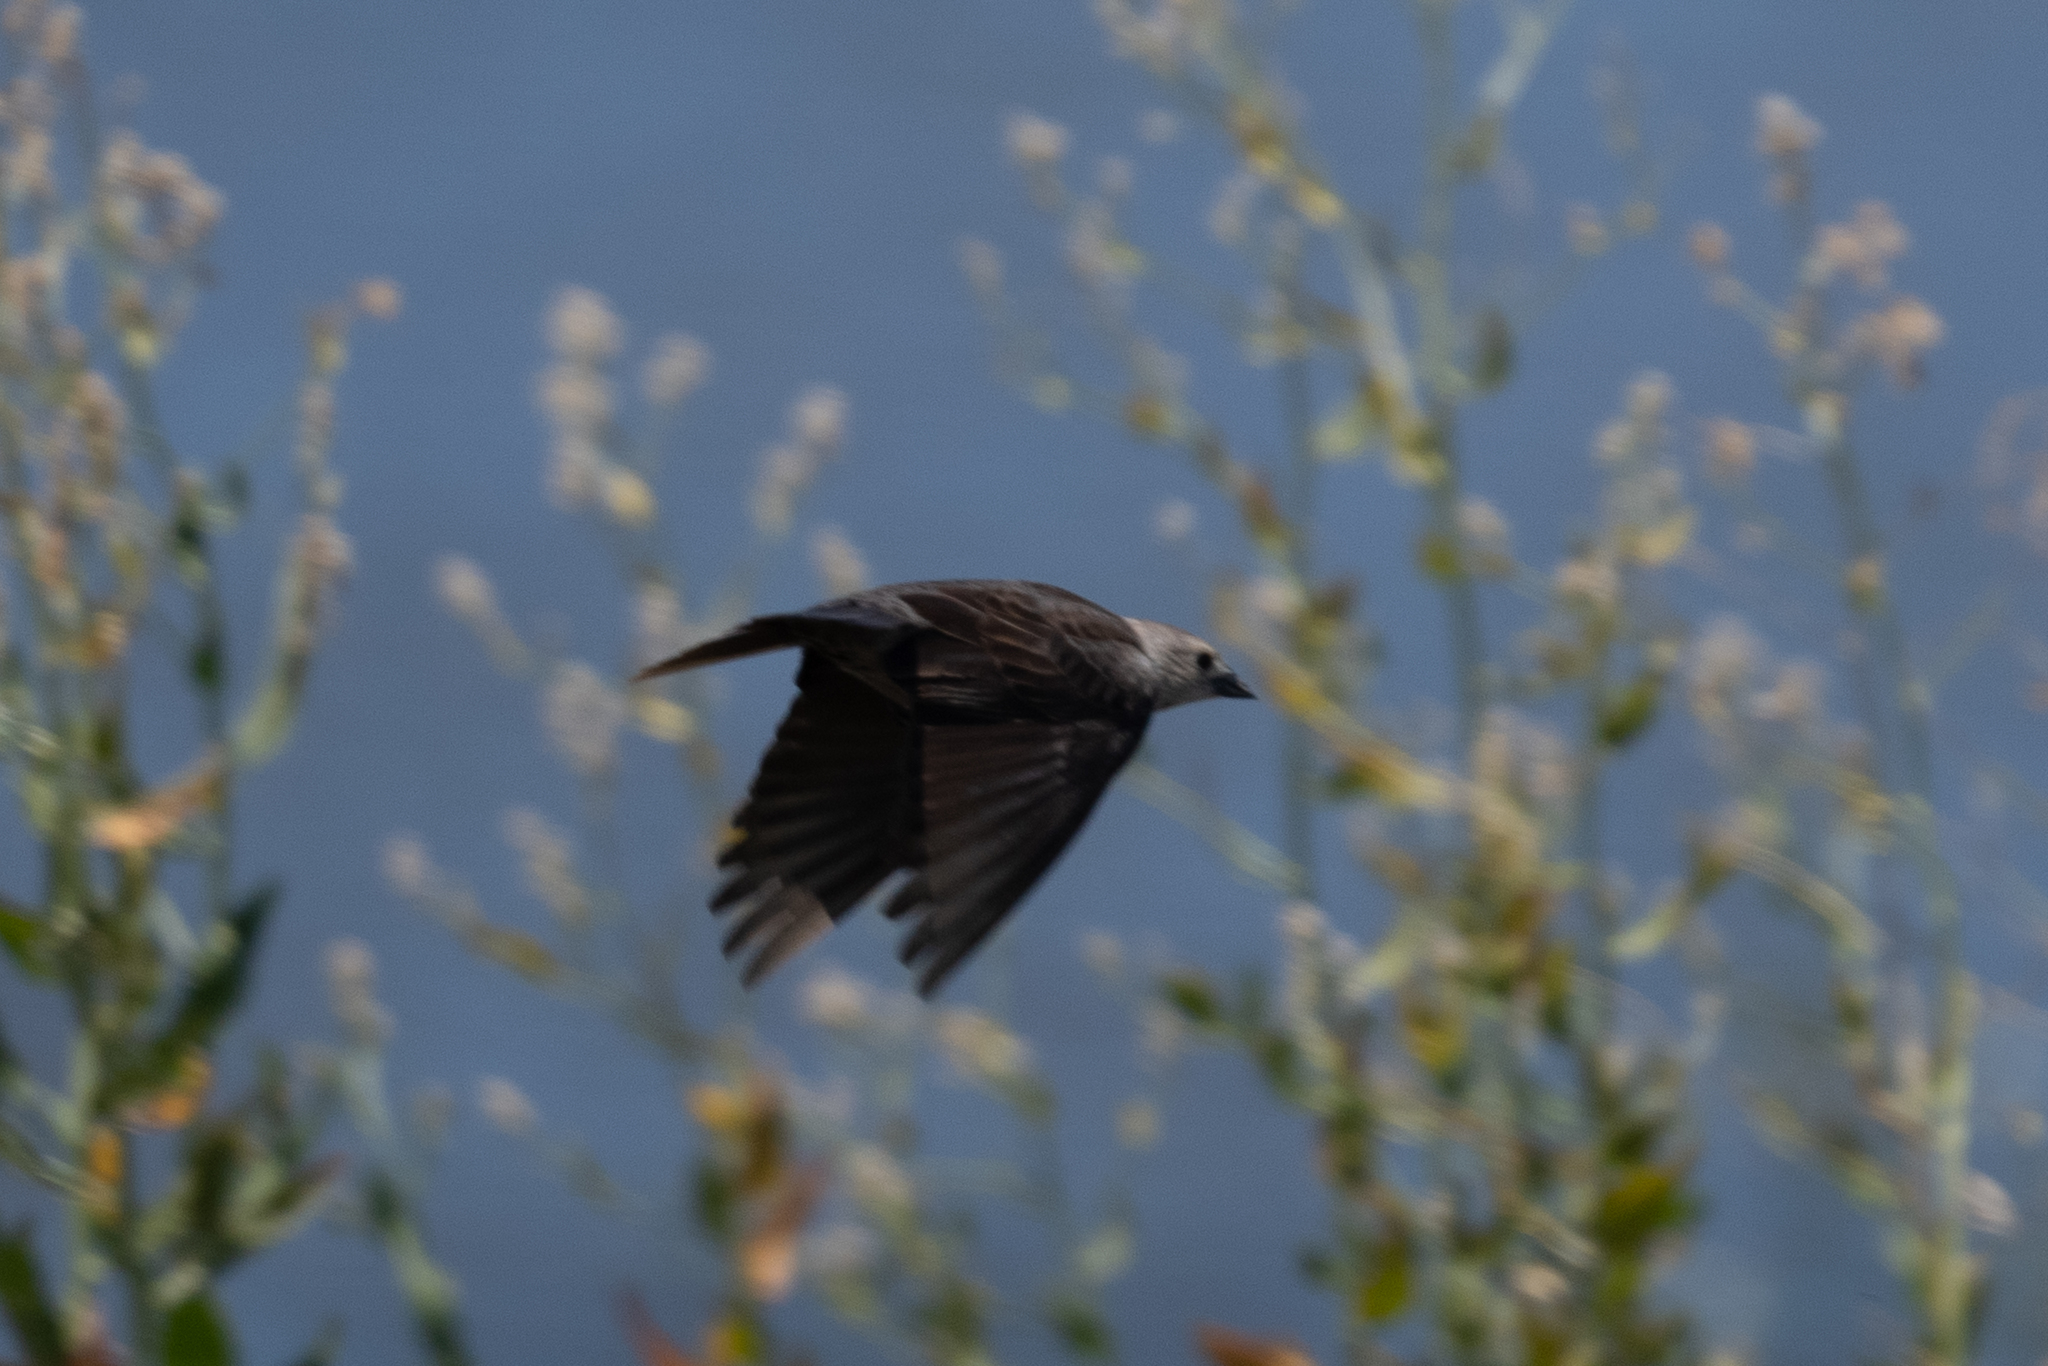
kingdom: Animalia
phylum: Chordata
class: Aves
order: Passeriformes
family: Icteridae
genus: Molothrus
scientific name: Molothrus ater
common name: Brown-headed cowbird
